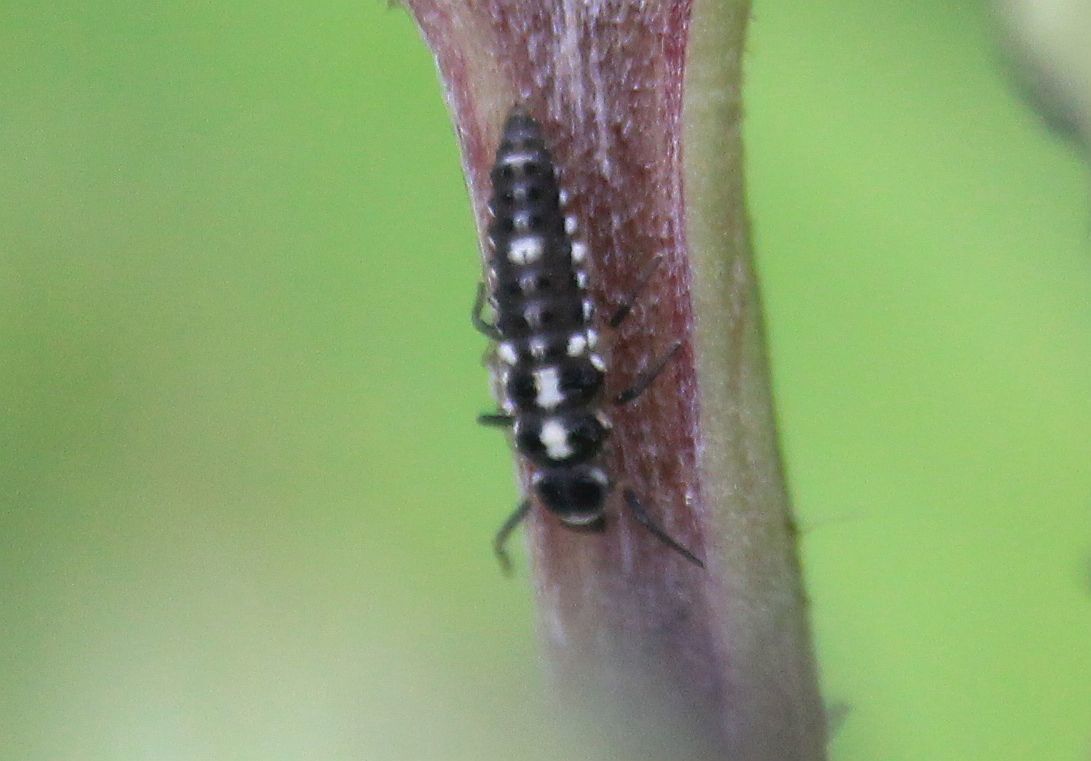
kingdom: Animalia
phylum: Arthropoda
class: Insecta
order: Coleoptera
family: Coccinellidae
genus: Propylaea
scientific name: Propylaea quatuordecimpunctata
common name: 14-spotted ladybird beetle
